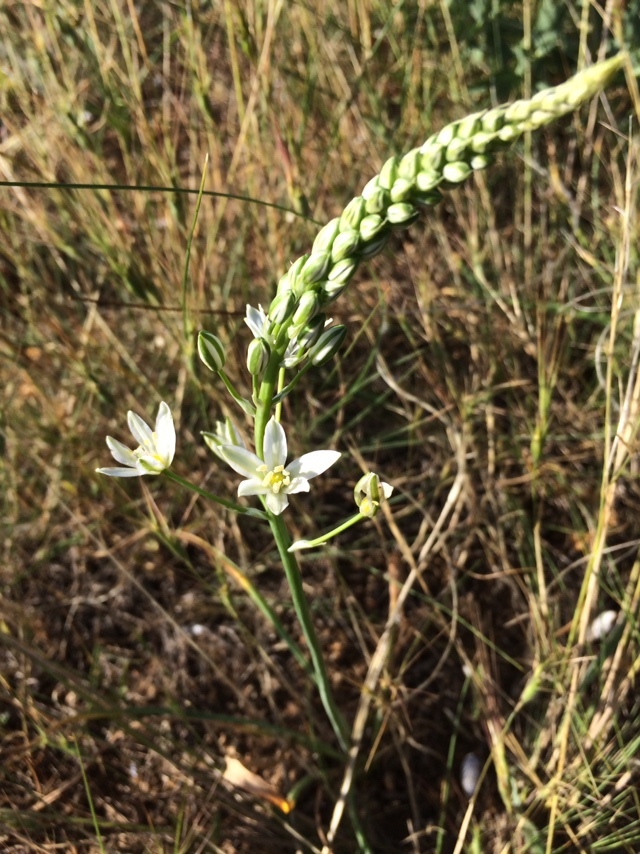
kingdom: Plantae
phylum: Tracheophyta
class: Liliopsida
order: Asparagales
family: Asparagaceae
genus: Ornithogalum
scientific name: Ornithogalum ponticum
